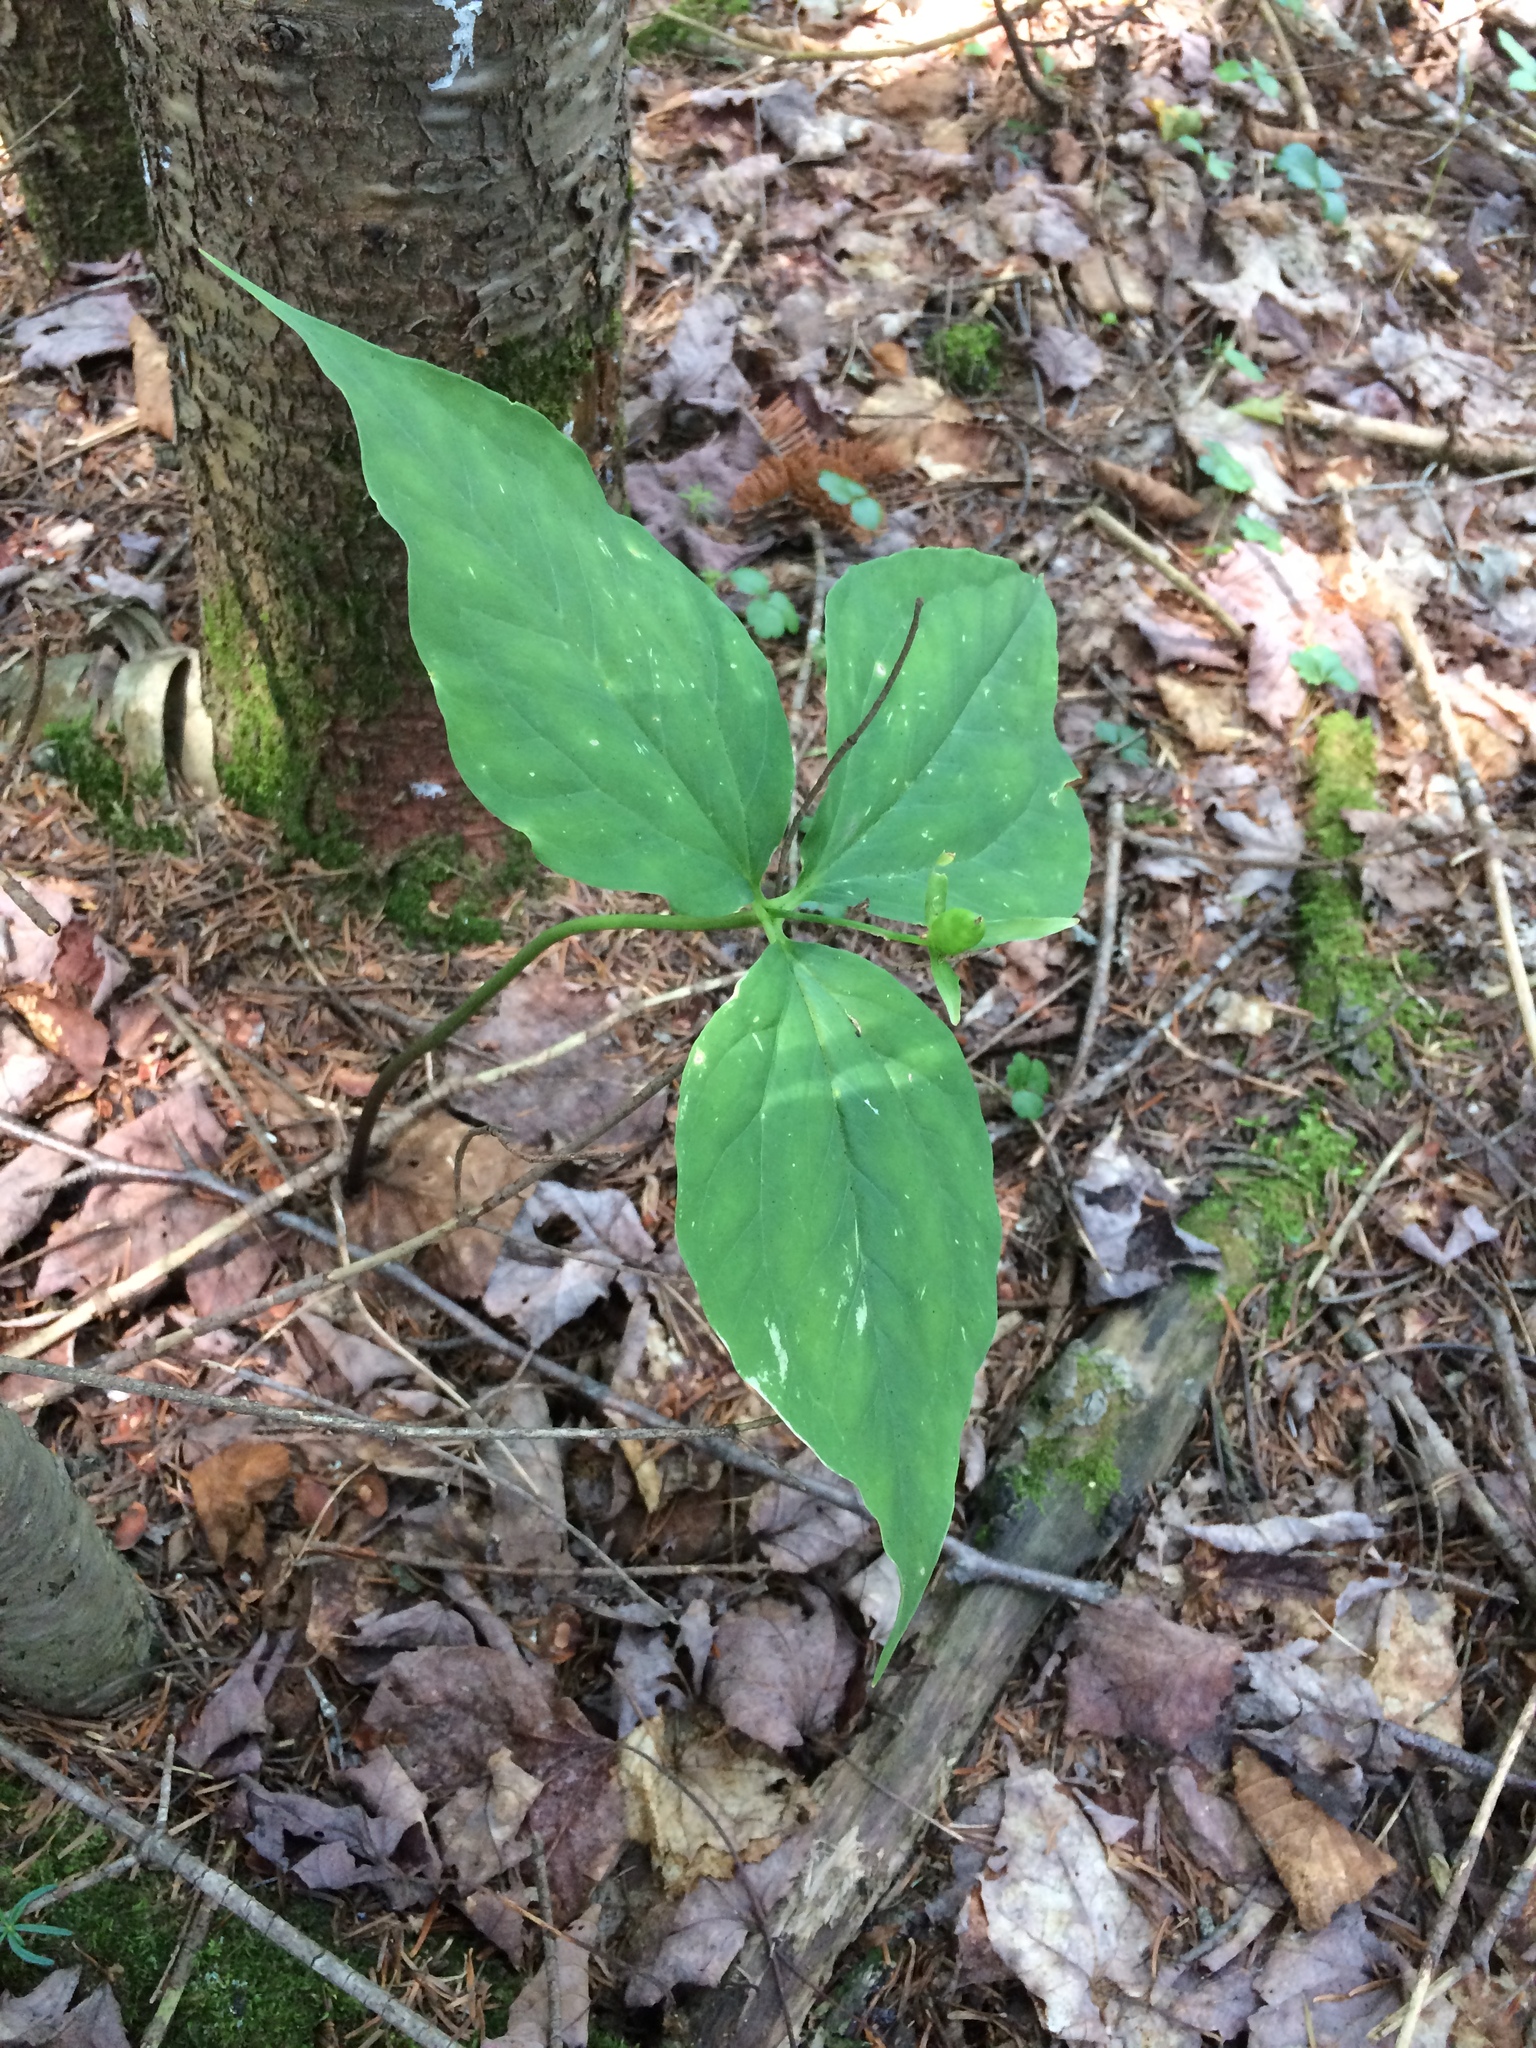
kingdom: Plantae
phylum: Tracheophyta
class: Liliopsida
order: Liliales
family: Melanthiaceae
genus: Trillium
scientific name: Trillium undulatum
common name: Paint trillium
